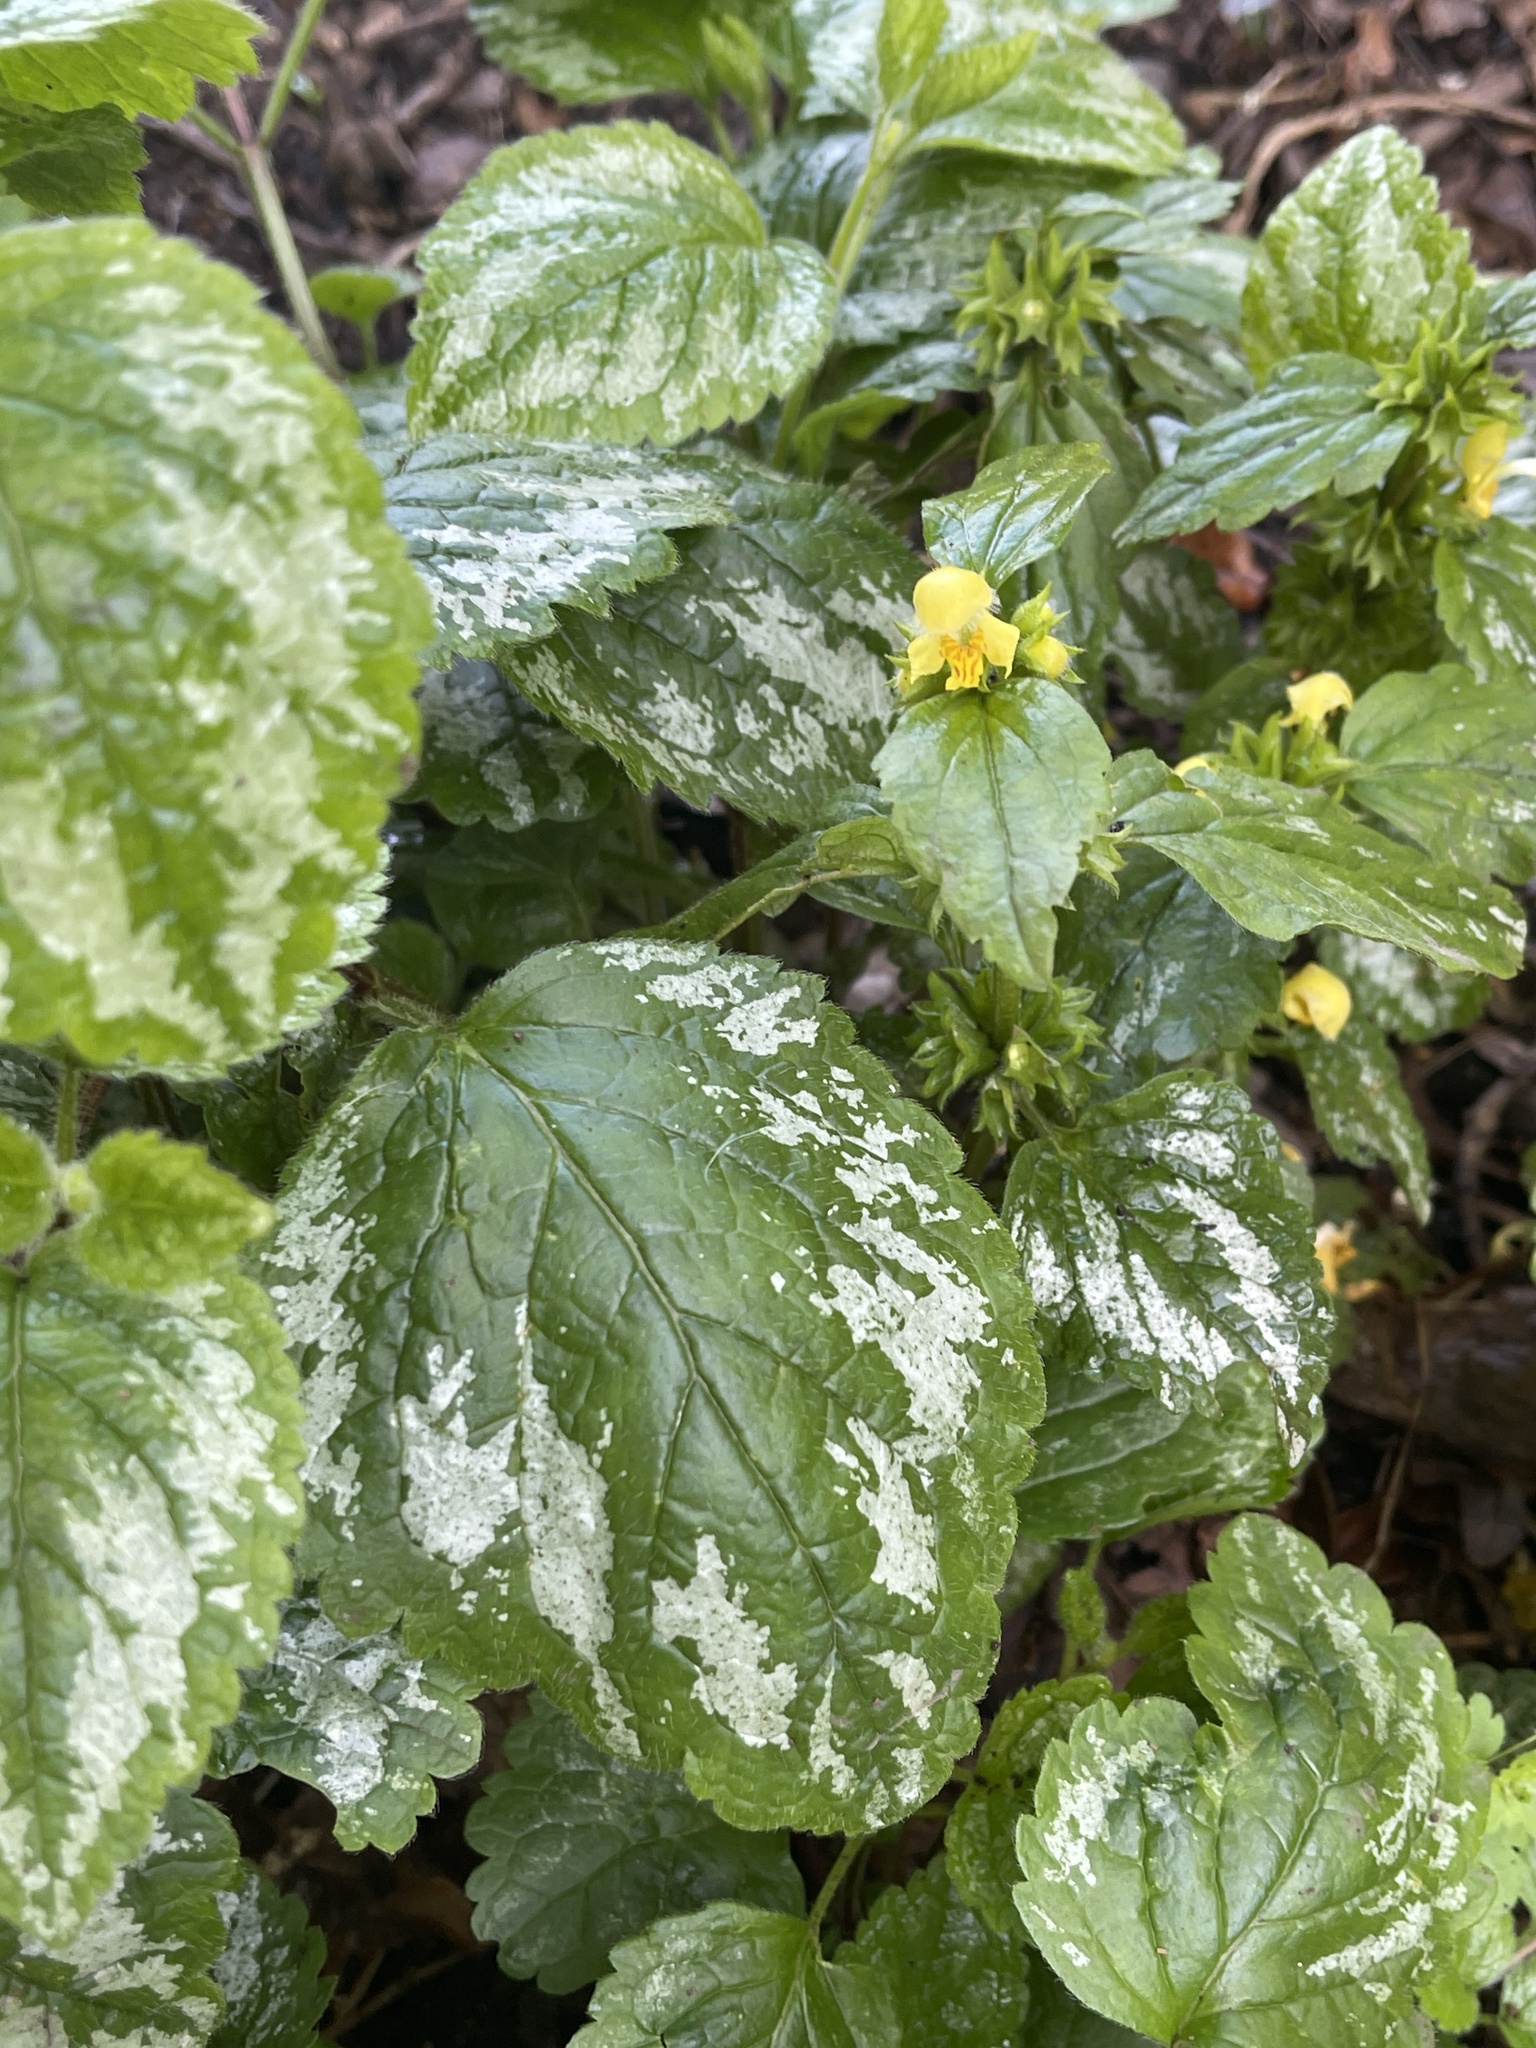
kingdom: Plantae
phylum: Tracheophyta
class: Magnoliopsida
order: Lamiales
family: Lamiaceae
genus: Lamium
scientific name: Lamium galeobdolon
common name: Yellow archangel
